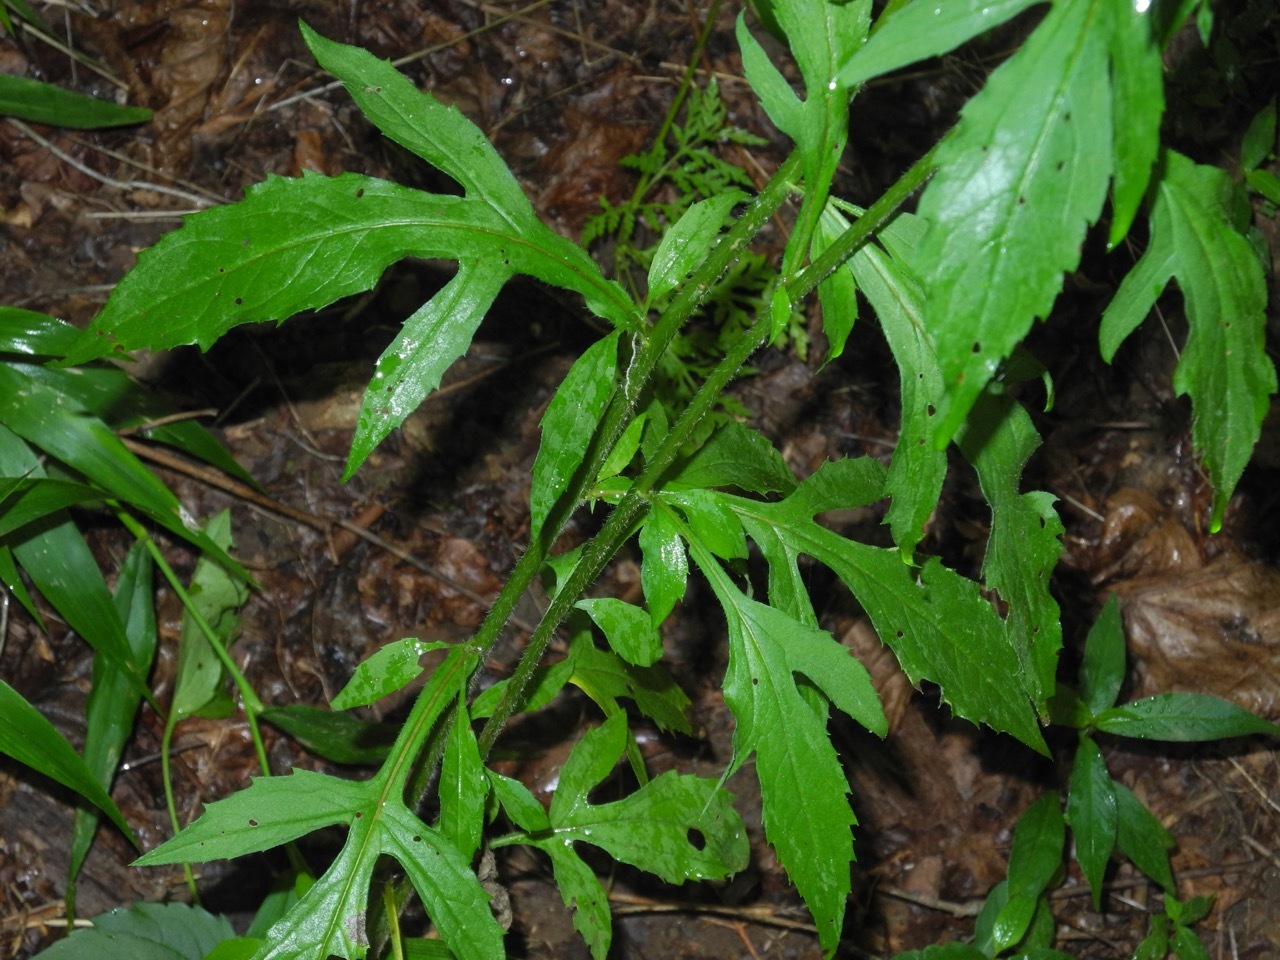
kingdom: Plantae
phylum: Tracheophyta
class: Magnoliopsida
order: Asterales
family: Asteraceae
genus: Rudbeckia
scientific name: Rudbeckia triloba
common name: Thin-leaved coneflower
